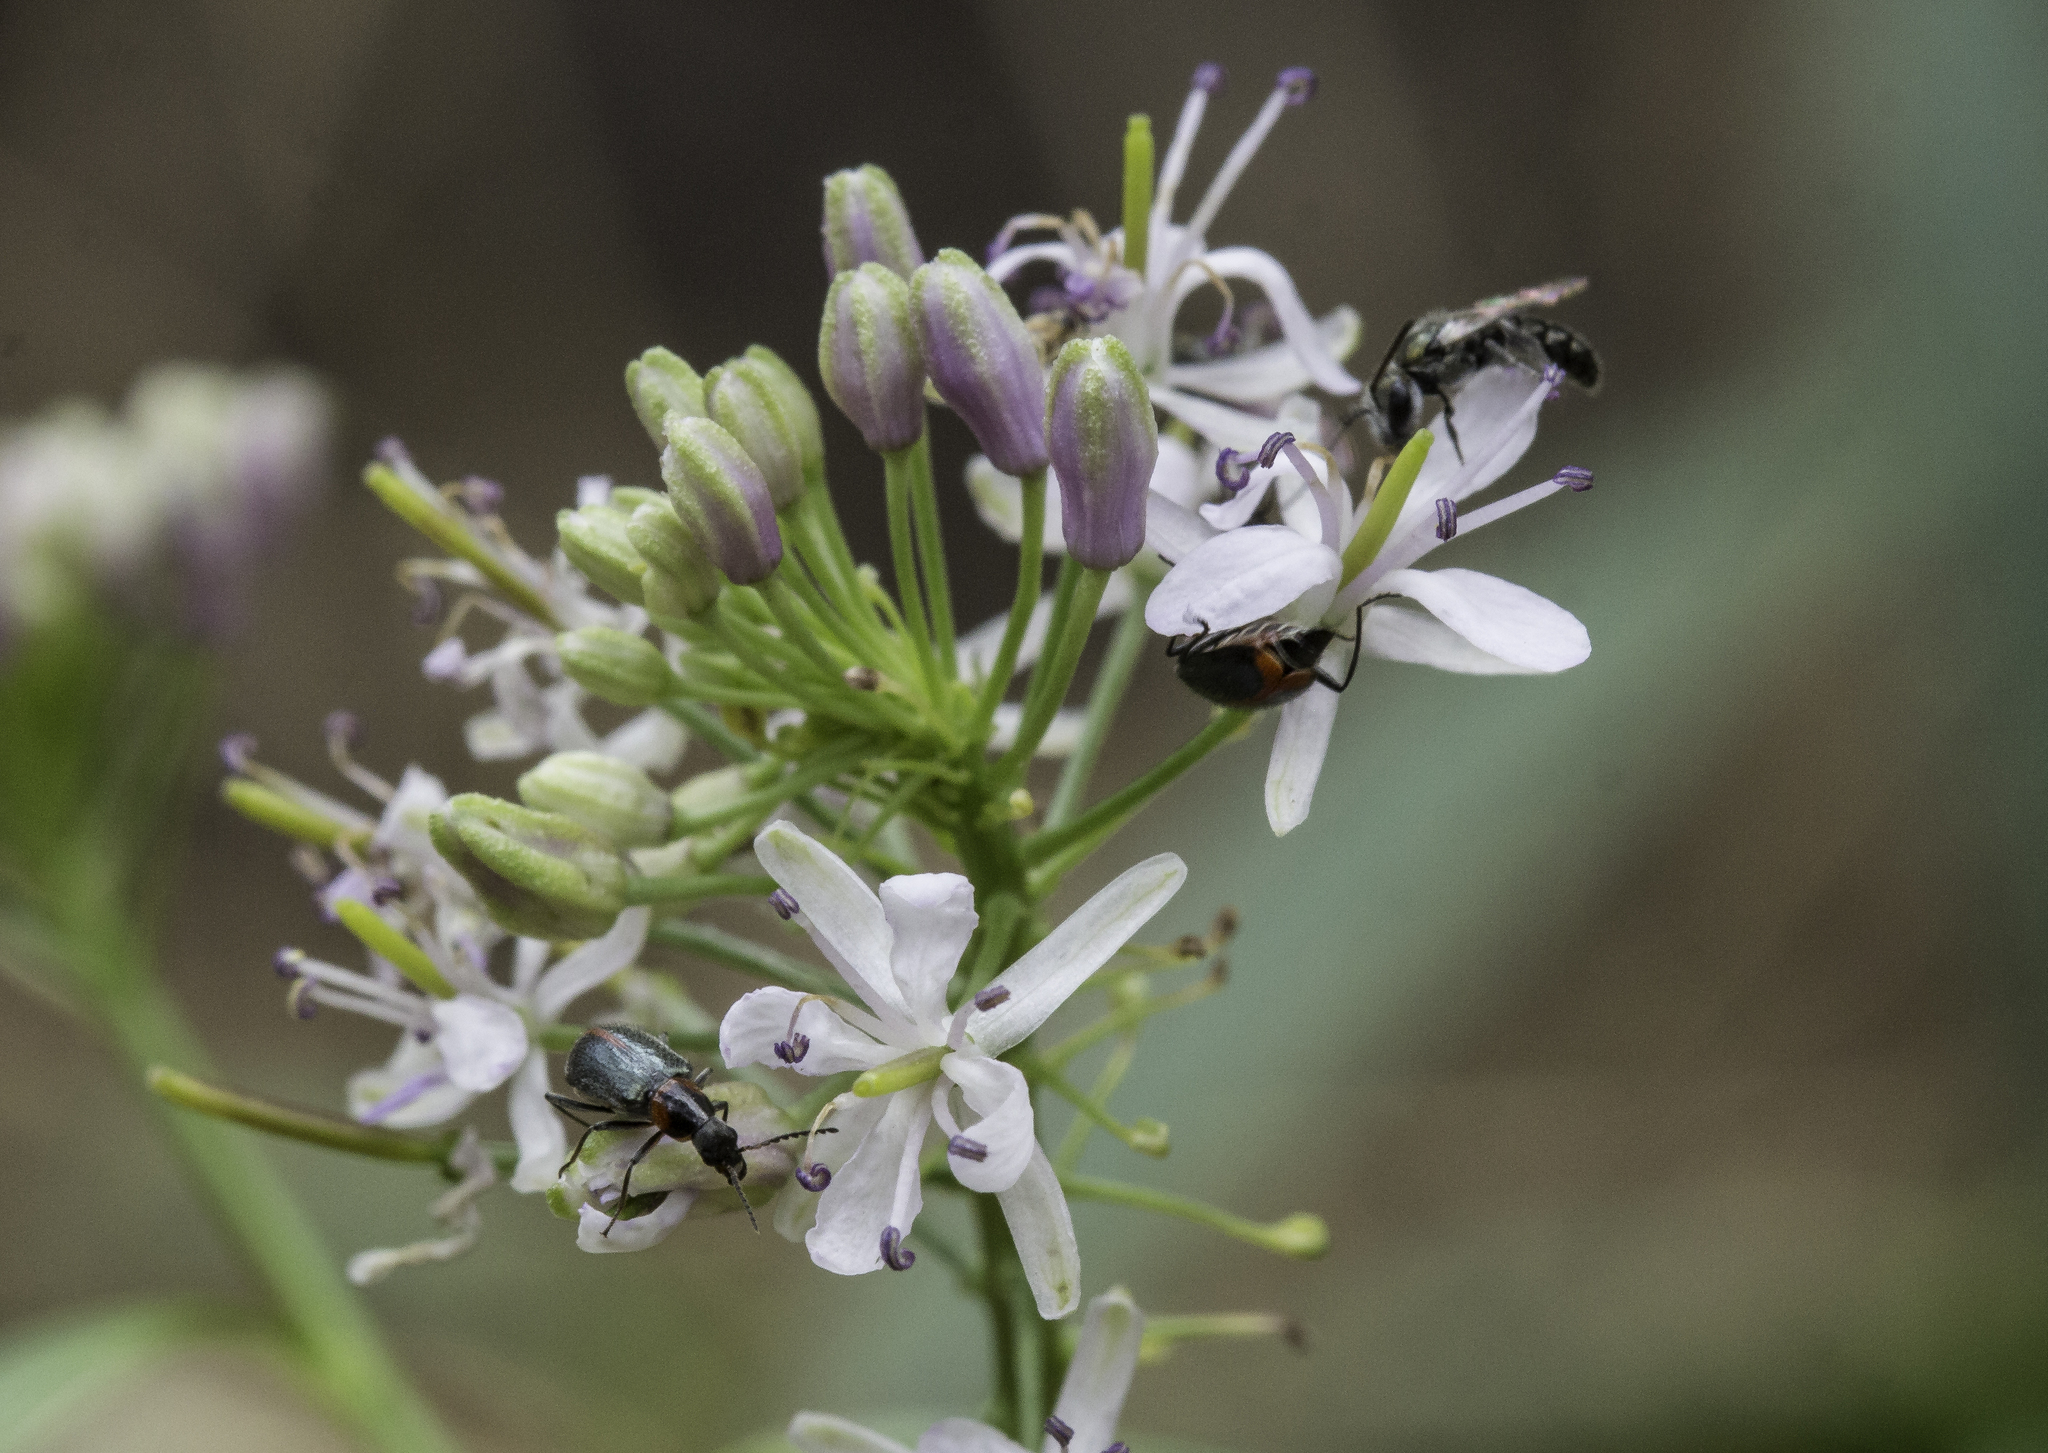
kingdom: Plantae
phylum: Tracheophyta
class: Magnoliopsida
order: Brassicales
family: Brassicaceae
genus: Thelypodium
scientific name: Thelypodium wrightii
